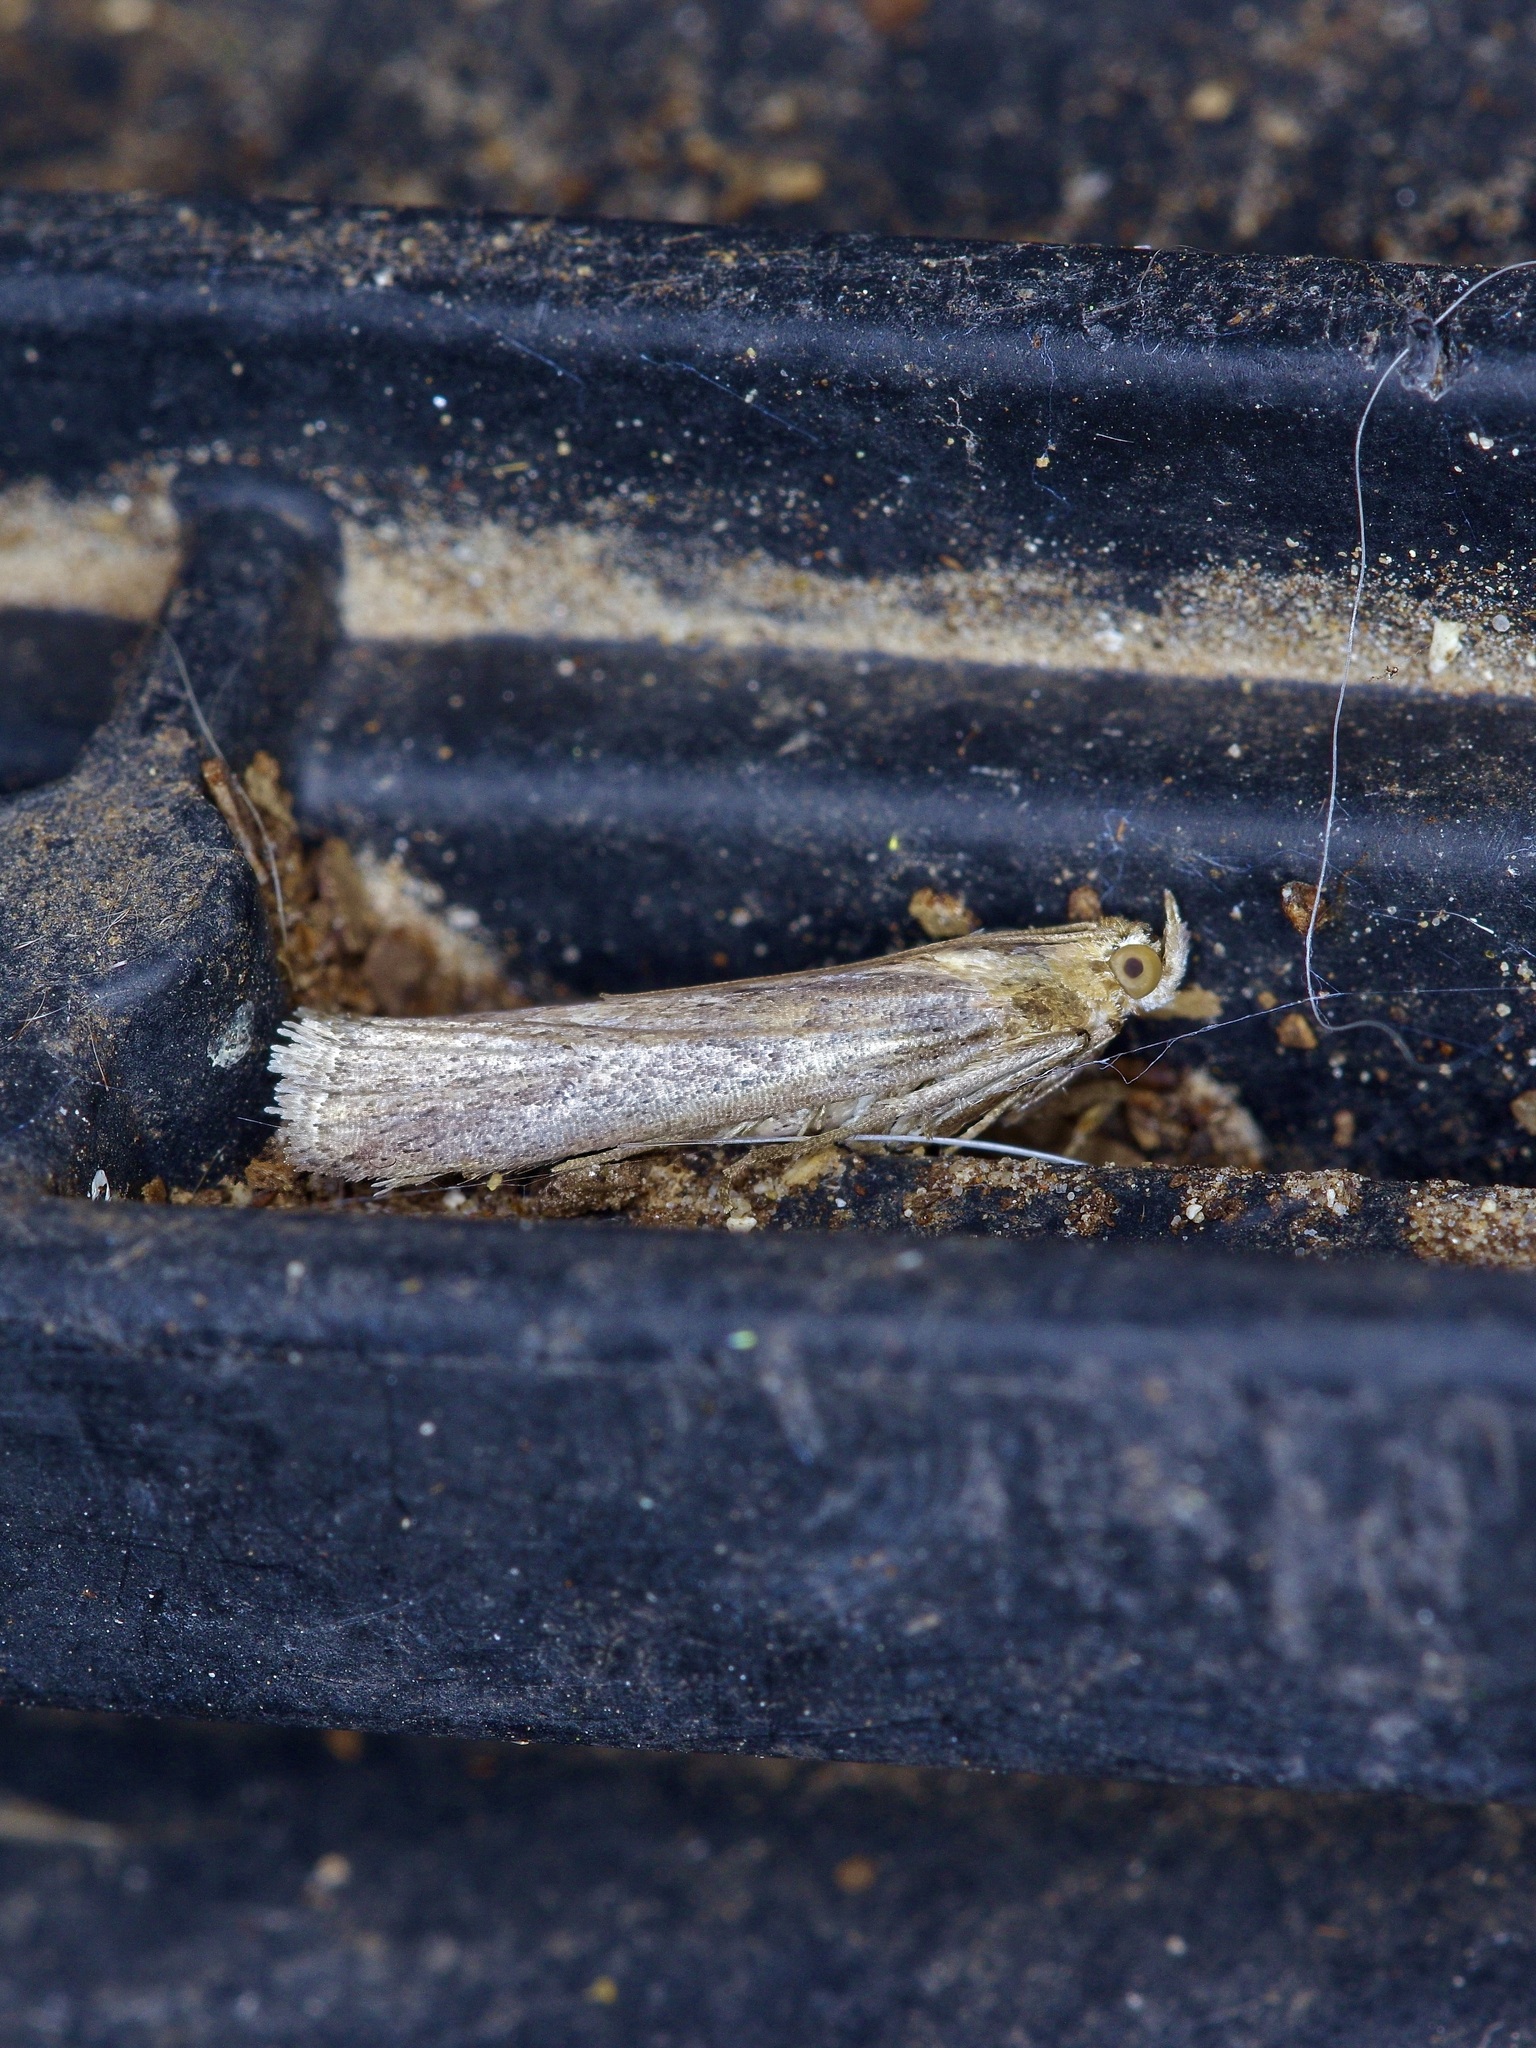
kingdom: Animalia
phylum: Arthropoda
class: Insecta
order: Lepidoptera
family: Pyralidae
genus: Adelphia
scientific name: Adelphia petrella
